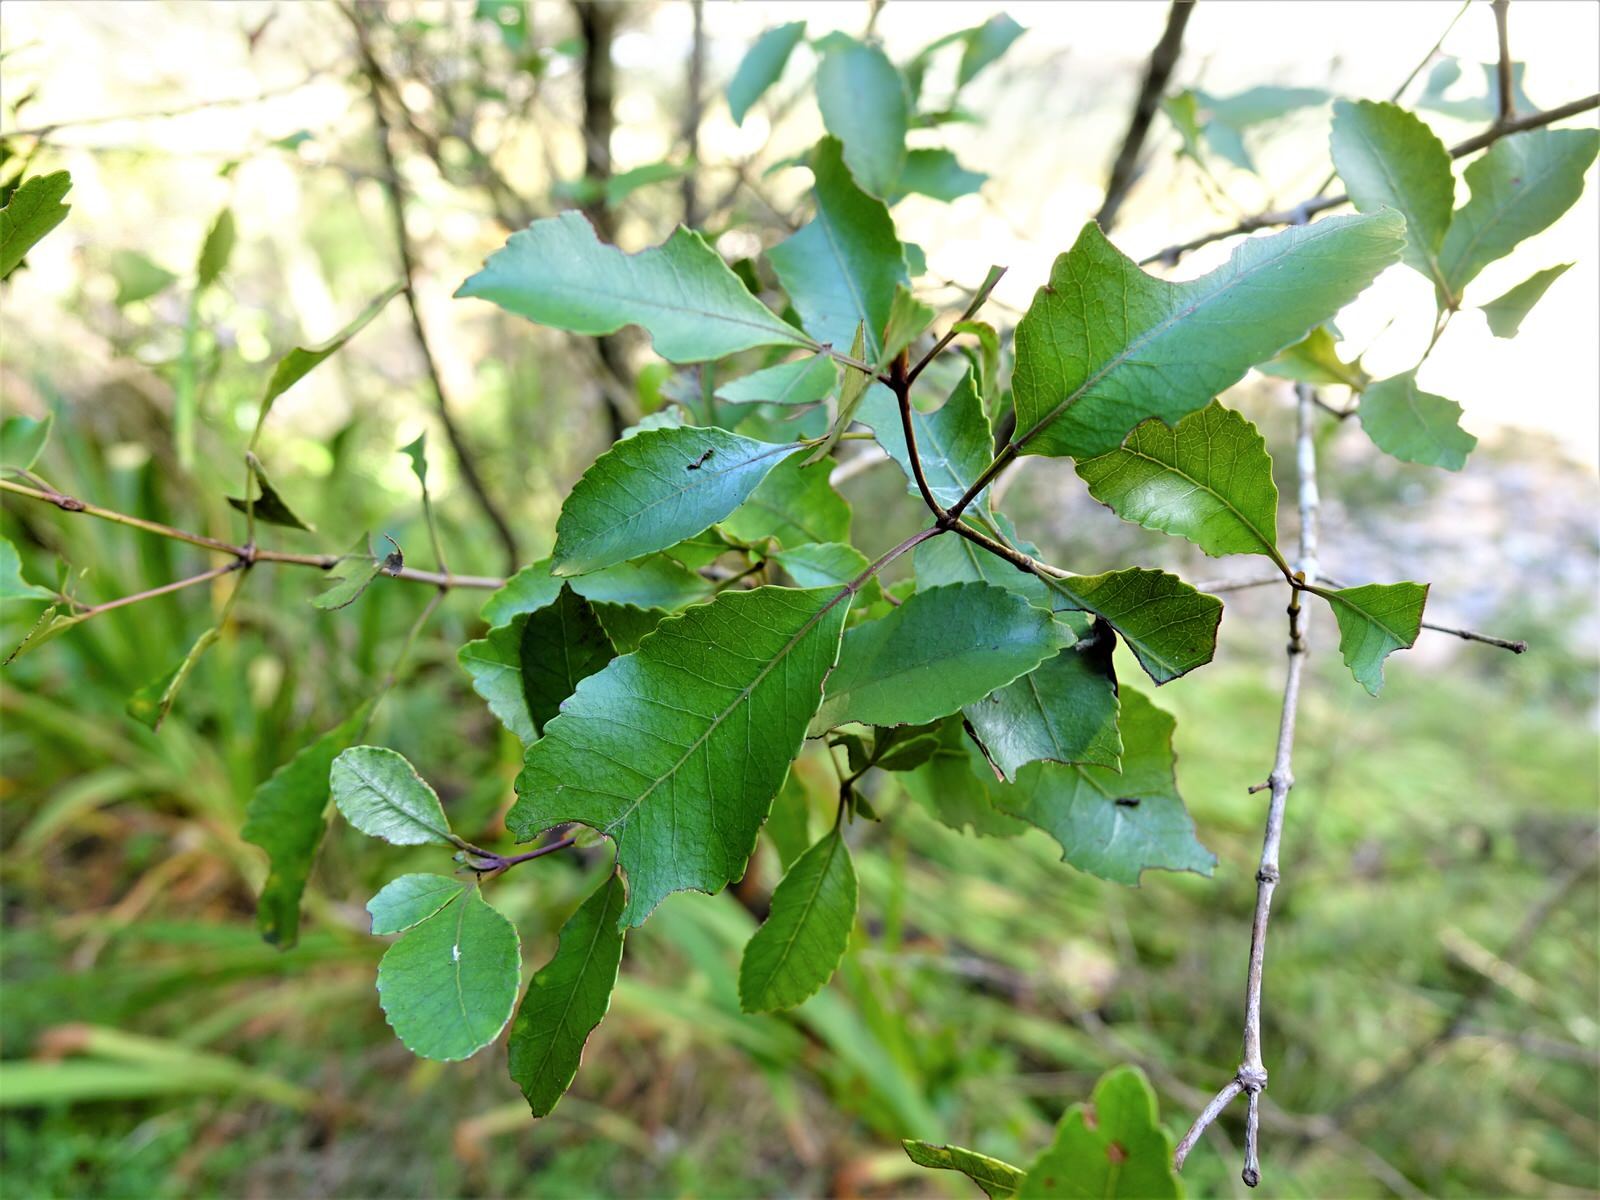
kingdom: Plantae
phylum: Tracheophyta
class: Magnoliopsida
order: Oxalidales
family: Cunoniaceae
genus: Pterophylla
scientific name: Pterophylla racemosa
